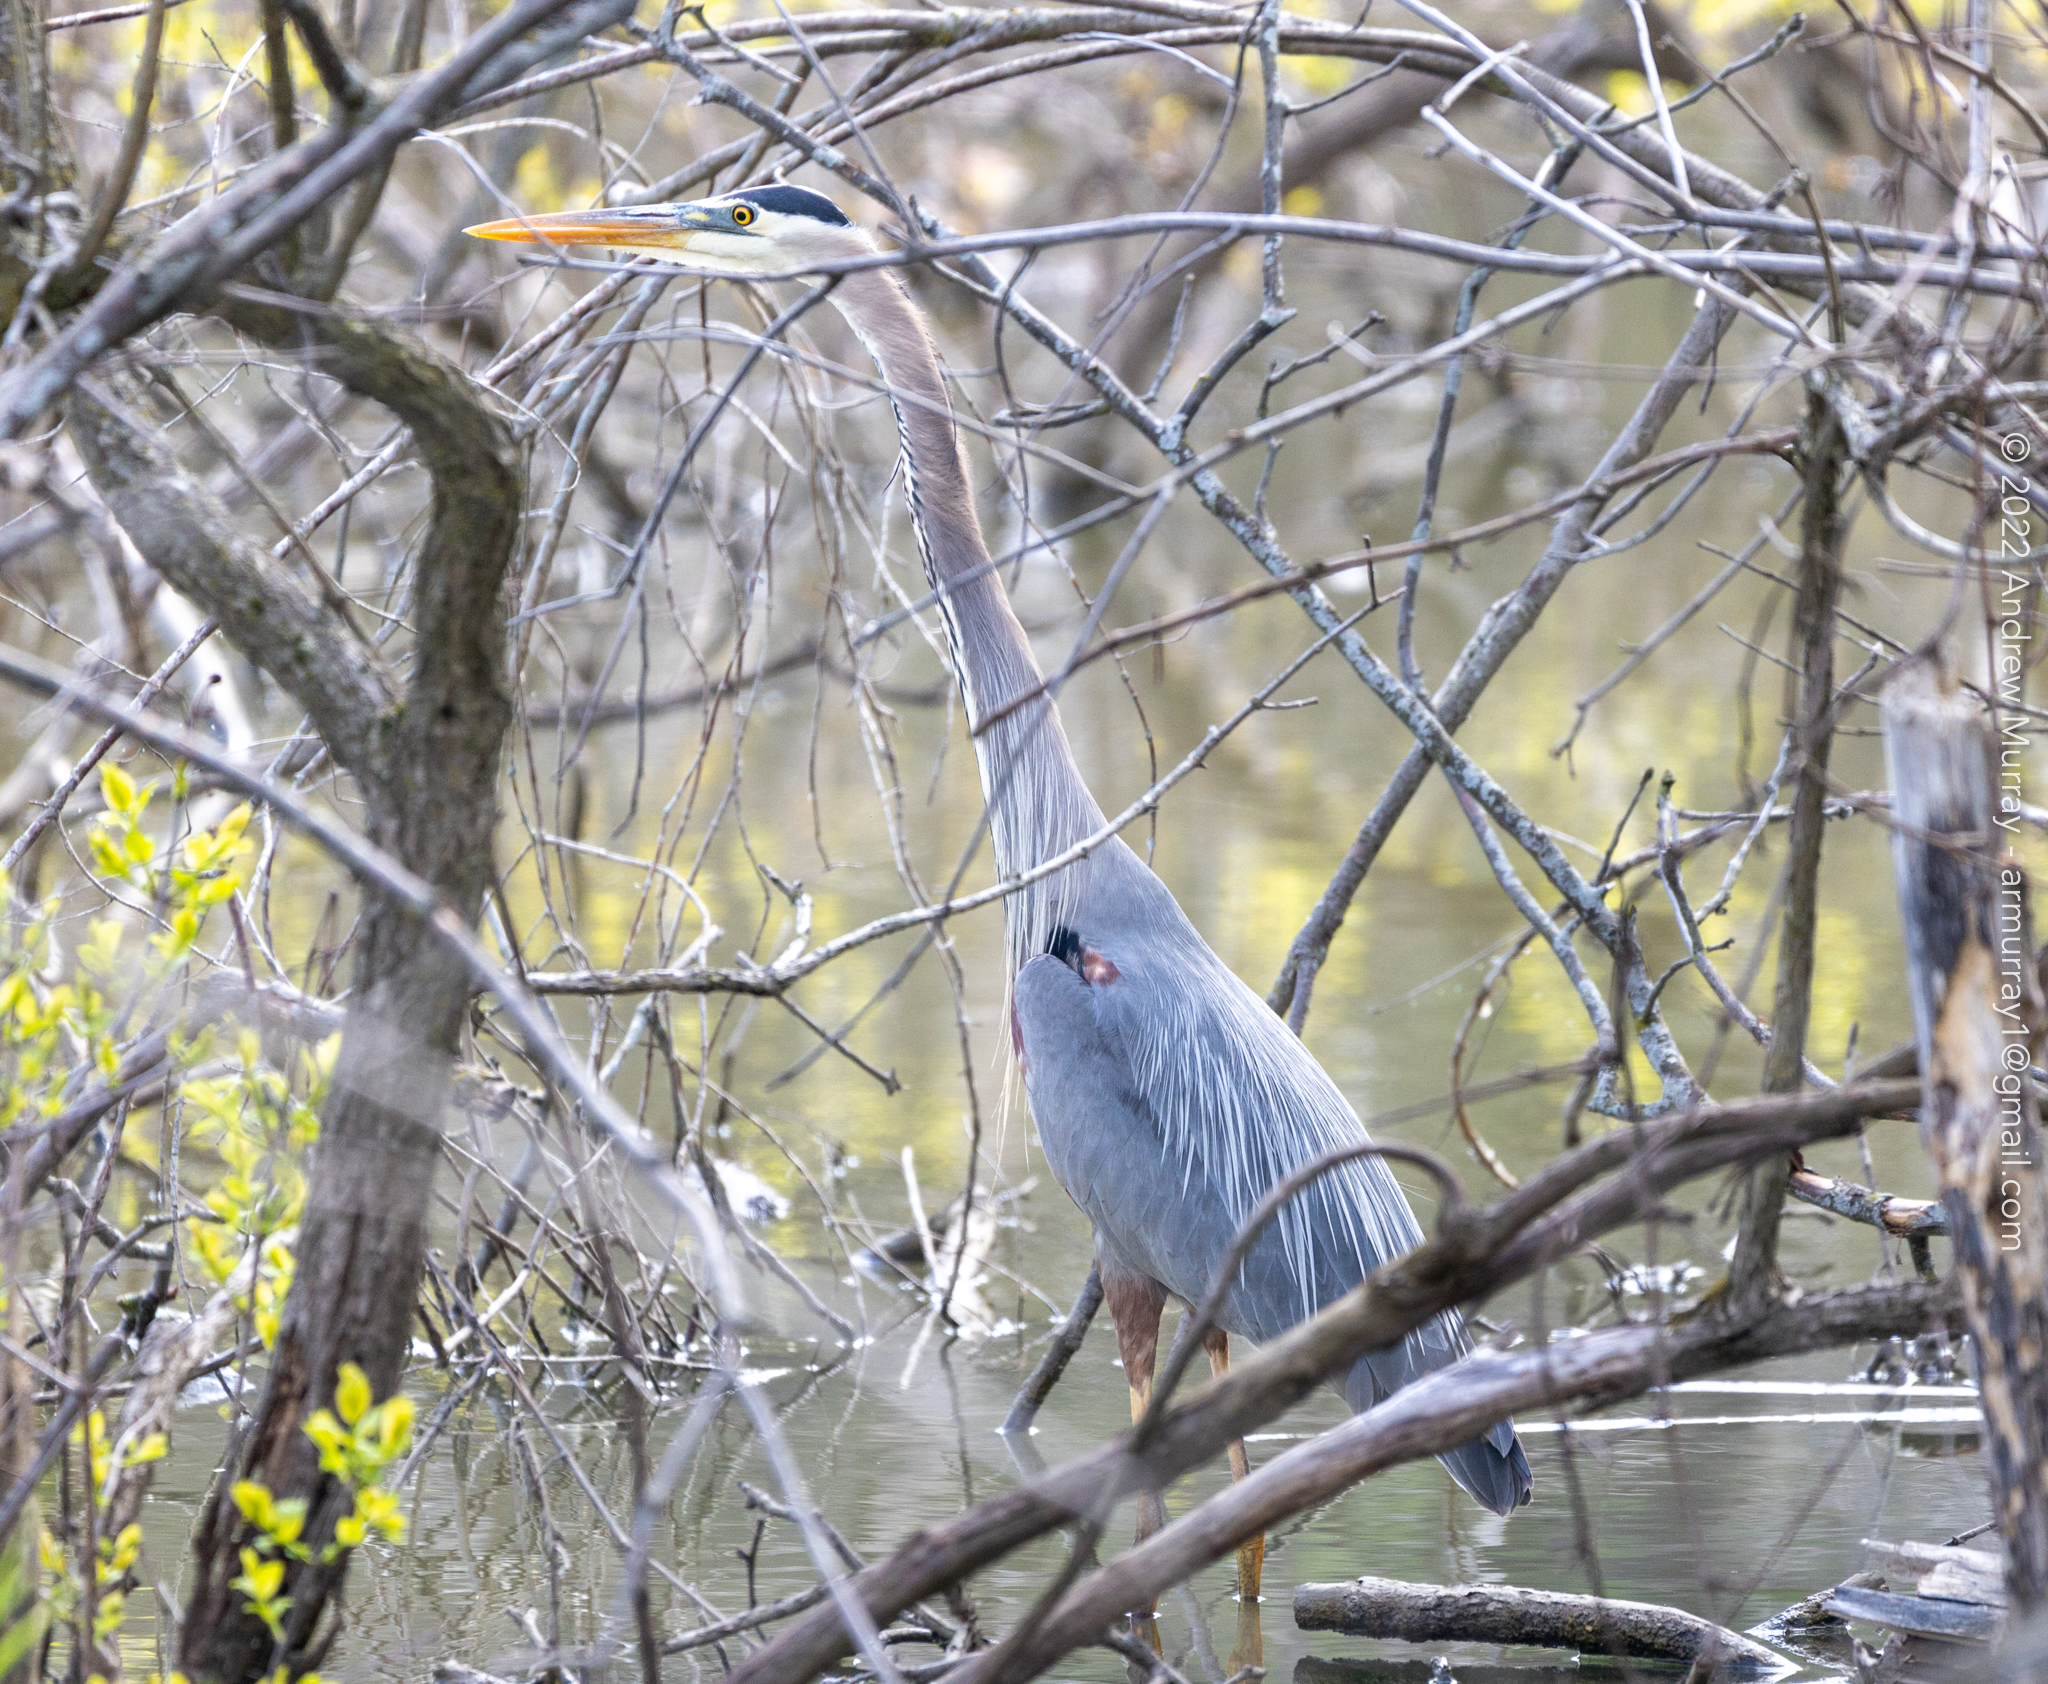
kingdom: Animalia
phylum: Chordata
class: Aves
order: Pelecaniformes
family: Ardeidae
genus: Ardea
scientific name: Ardea herodias
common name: Great blue heron
